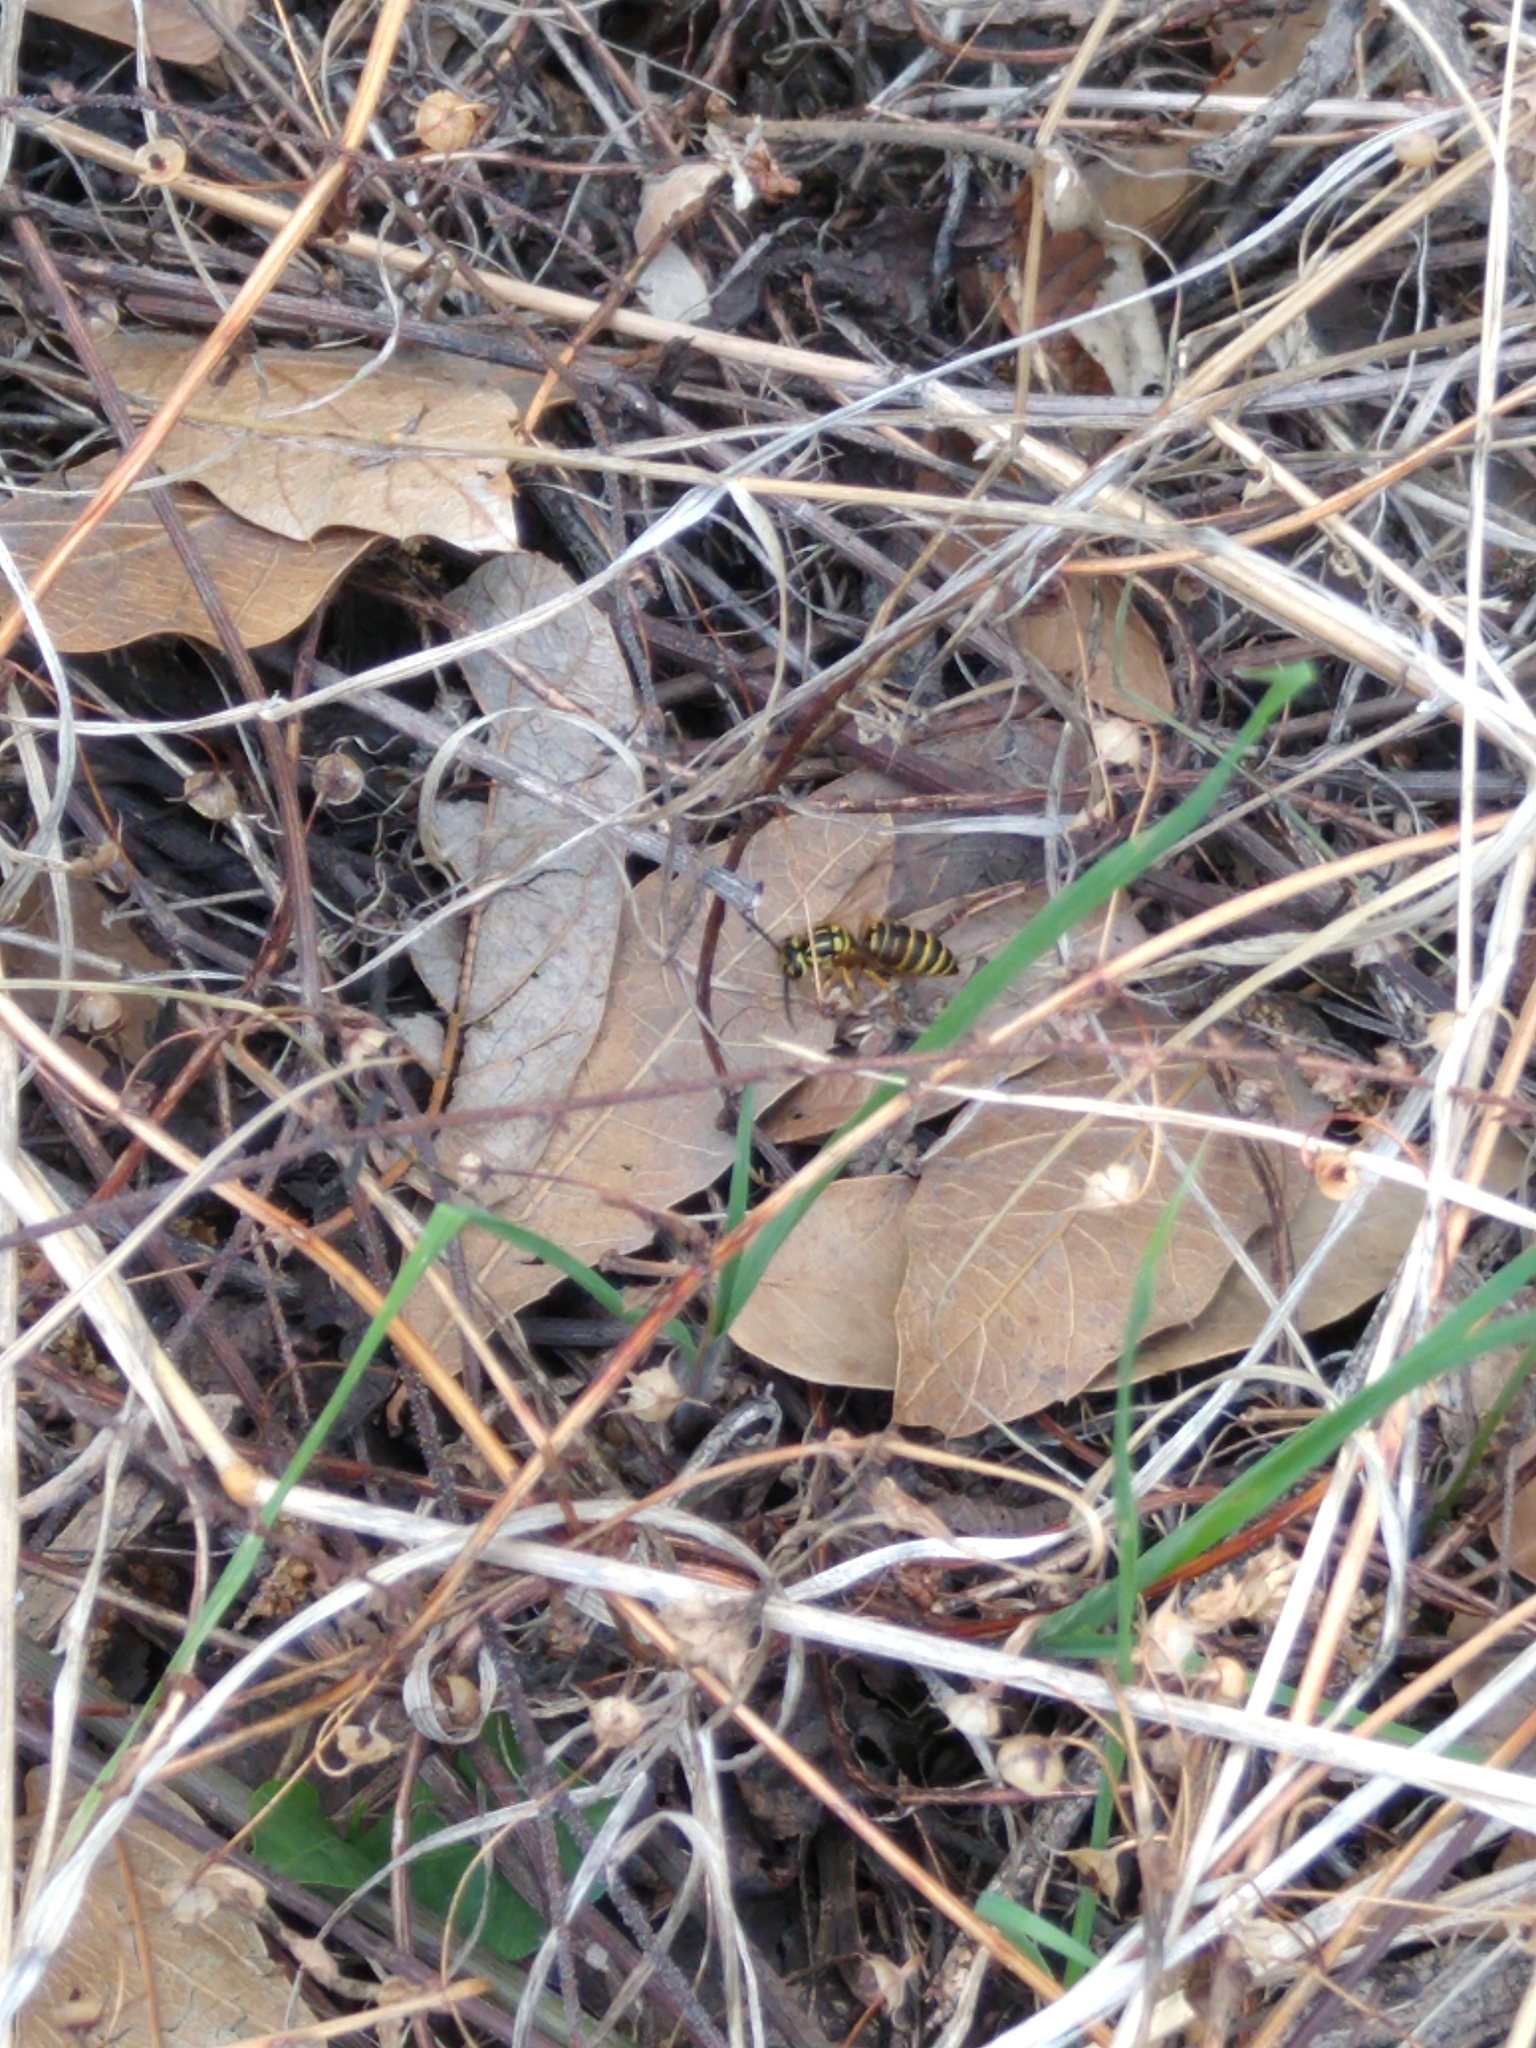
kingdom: Animalia
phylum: Arthropoda
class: Insecta
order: Hymenoptera
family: Vespidae
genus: Vespula
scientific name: Vespula squamosa
